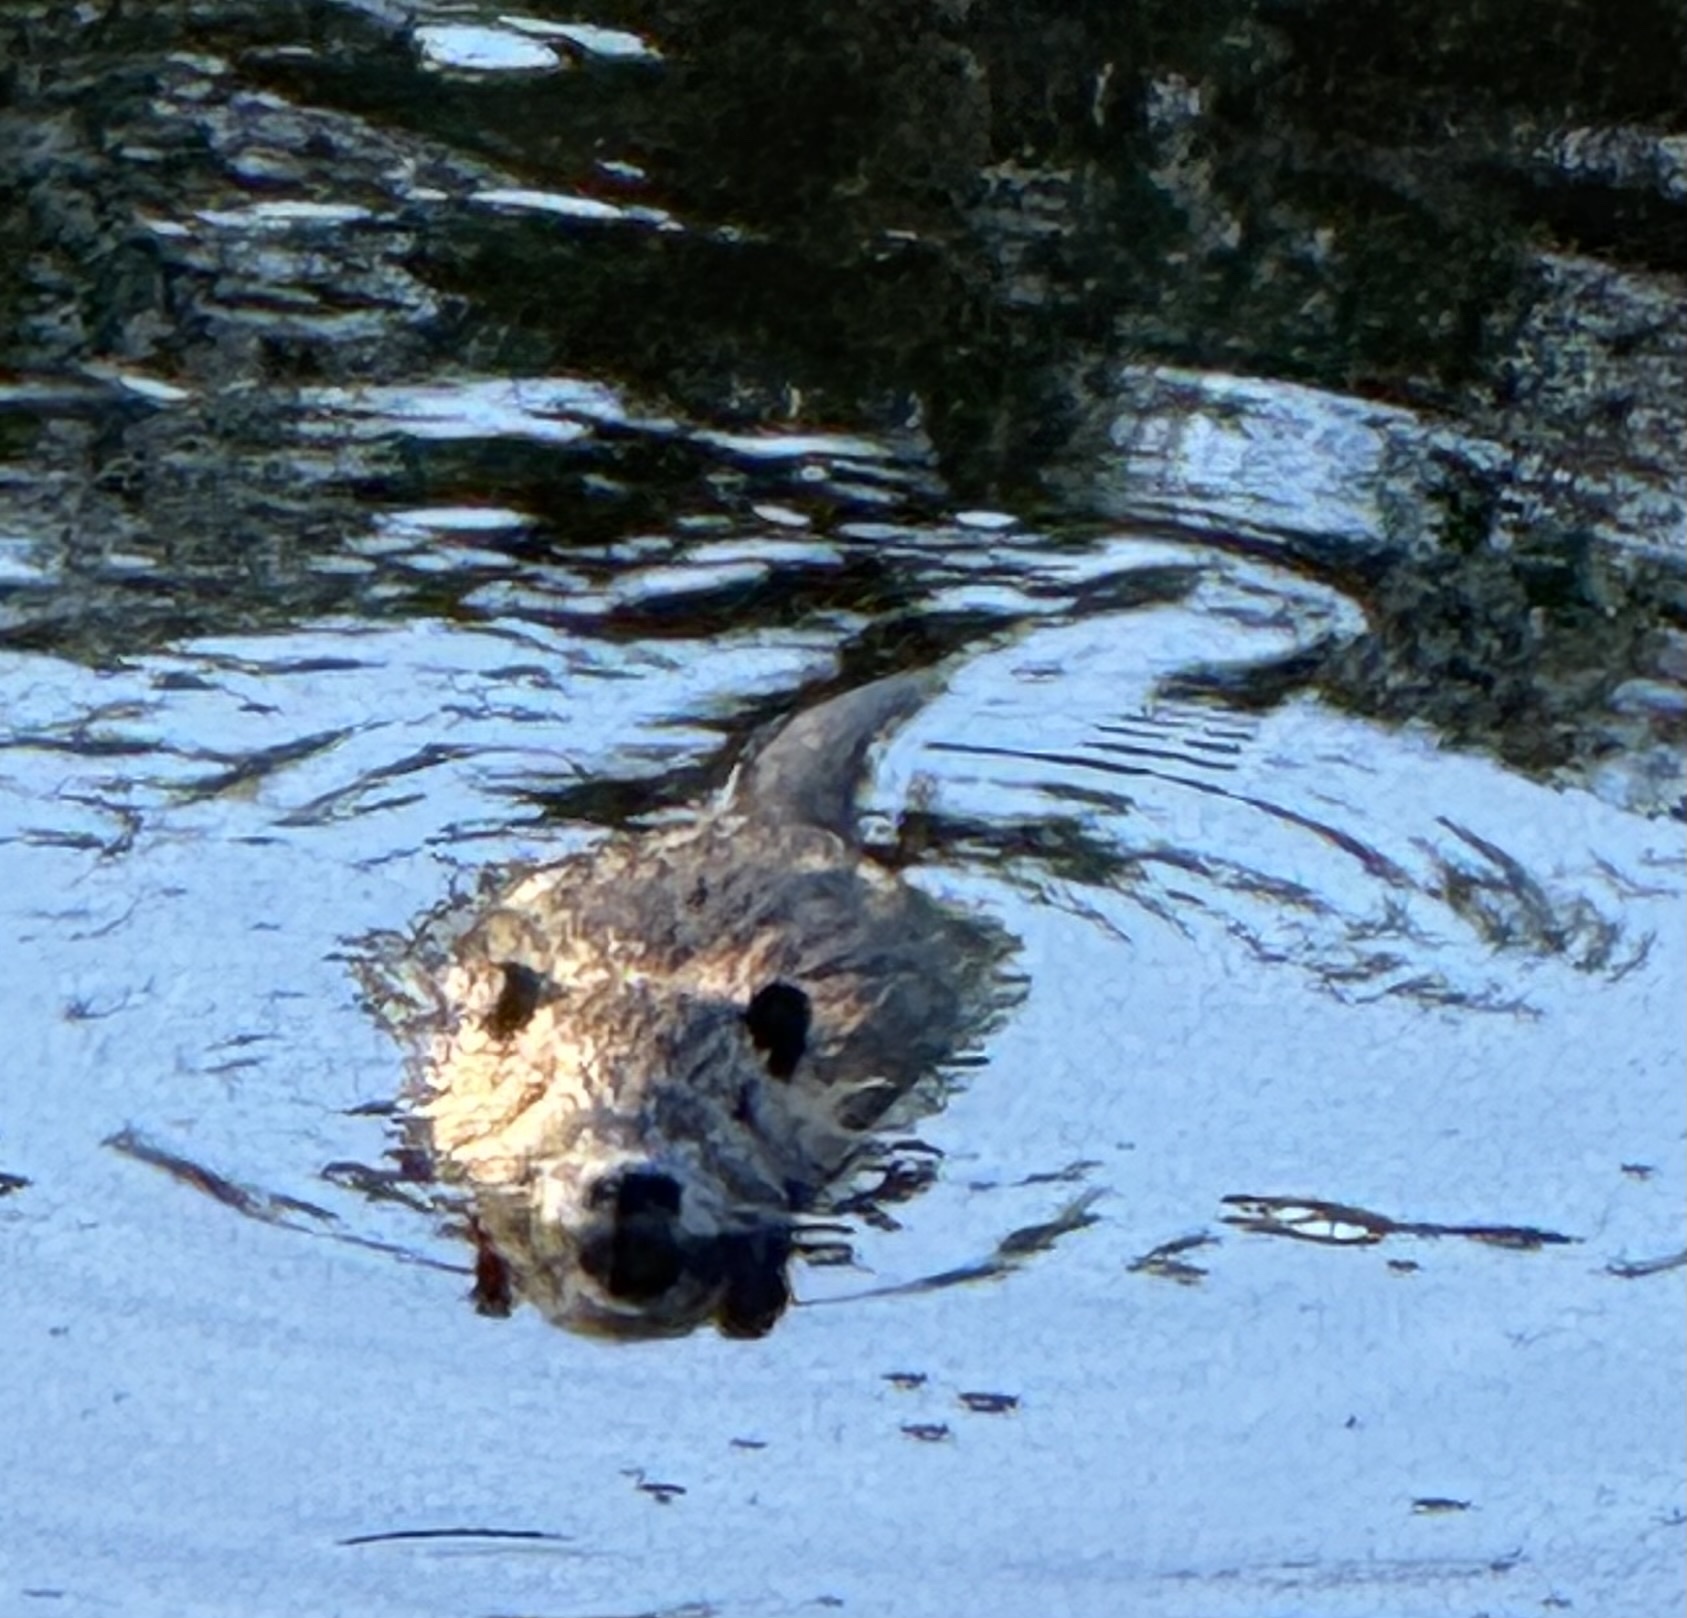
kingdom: Animalia
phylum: Chordata
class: Mammalia
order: Rodentia
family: Myocastoridae
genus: Myocastor
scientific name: Myocastor coypus
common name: Coypu
